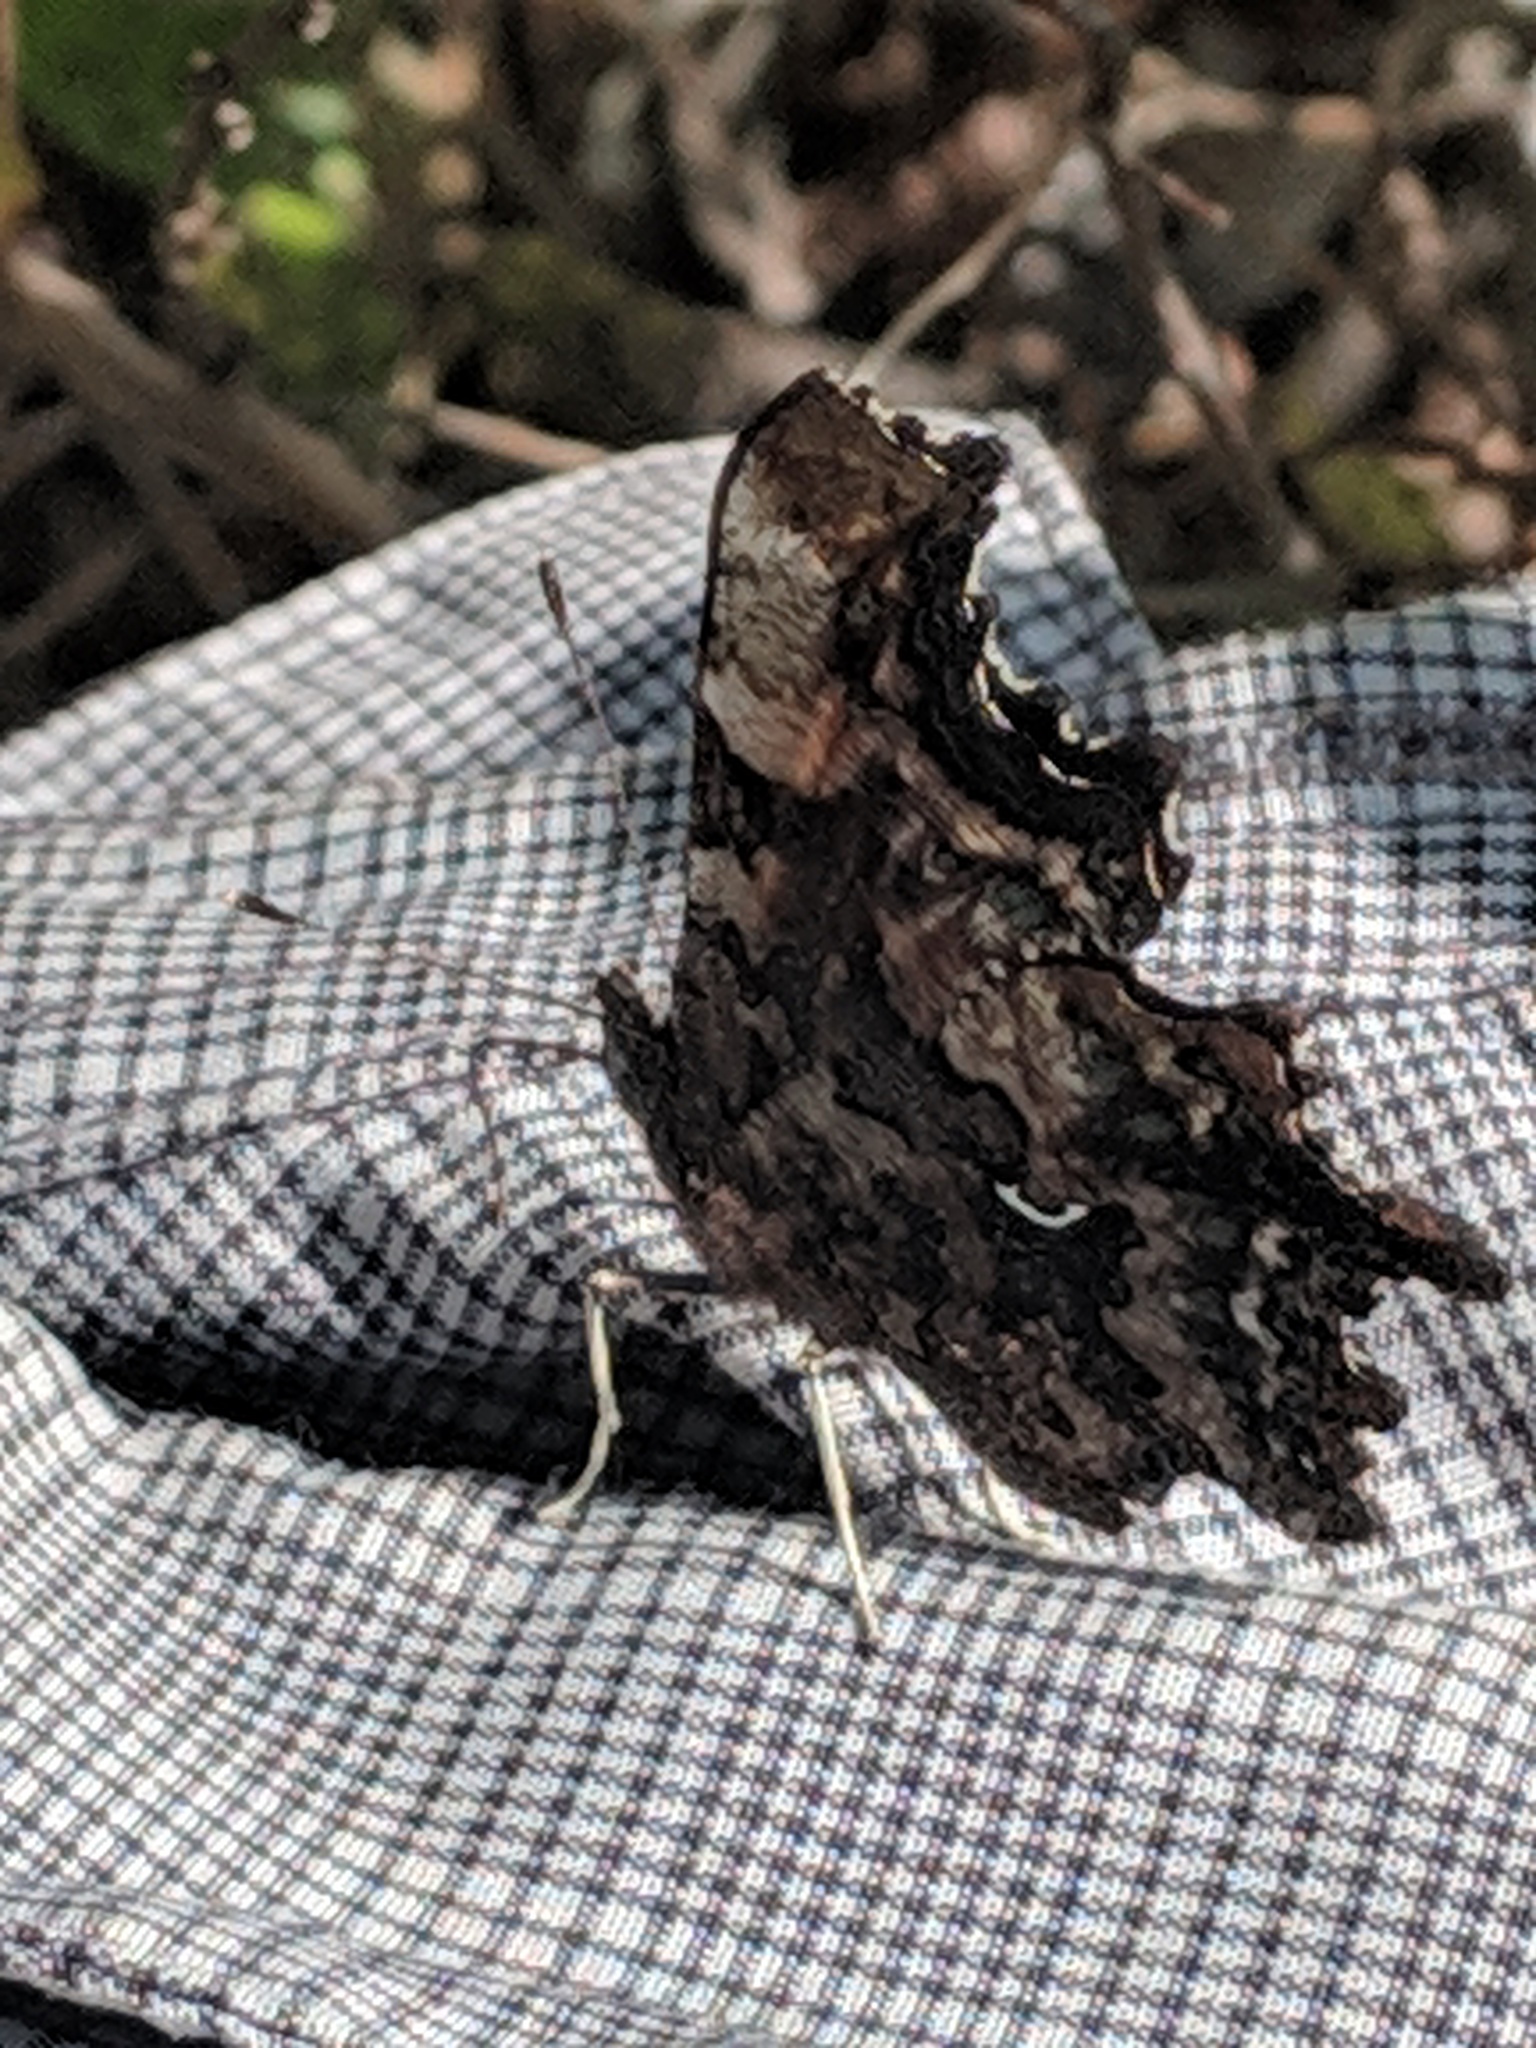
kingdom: Animalia
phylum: Arthropoda
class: Insecta
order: Lepidoptera
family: Nymphalidae
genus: Polygonia
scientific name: Polygonia faunus
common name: Green comma
